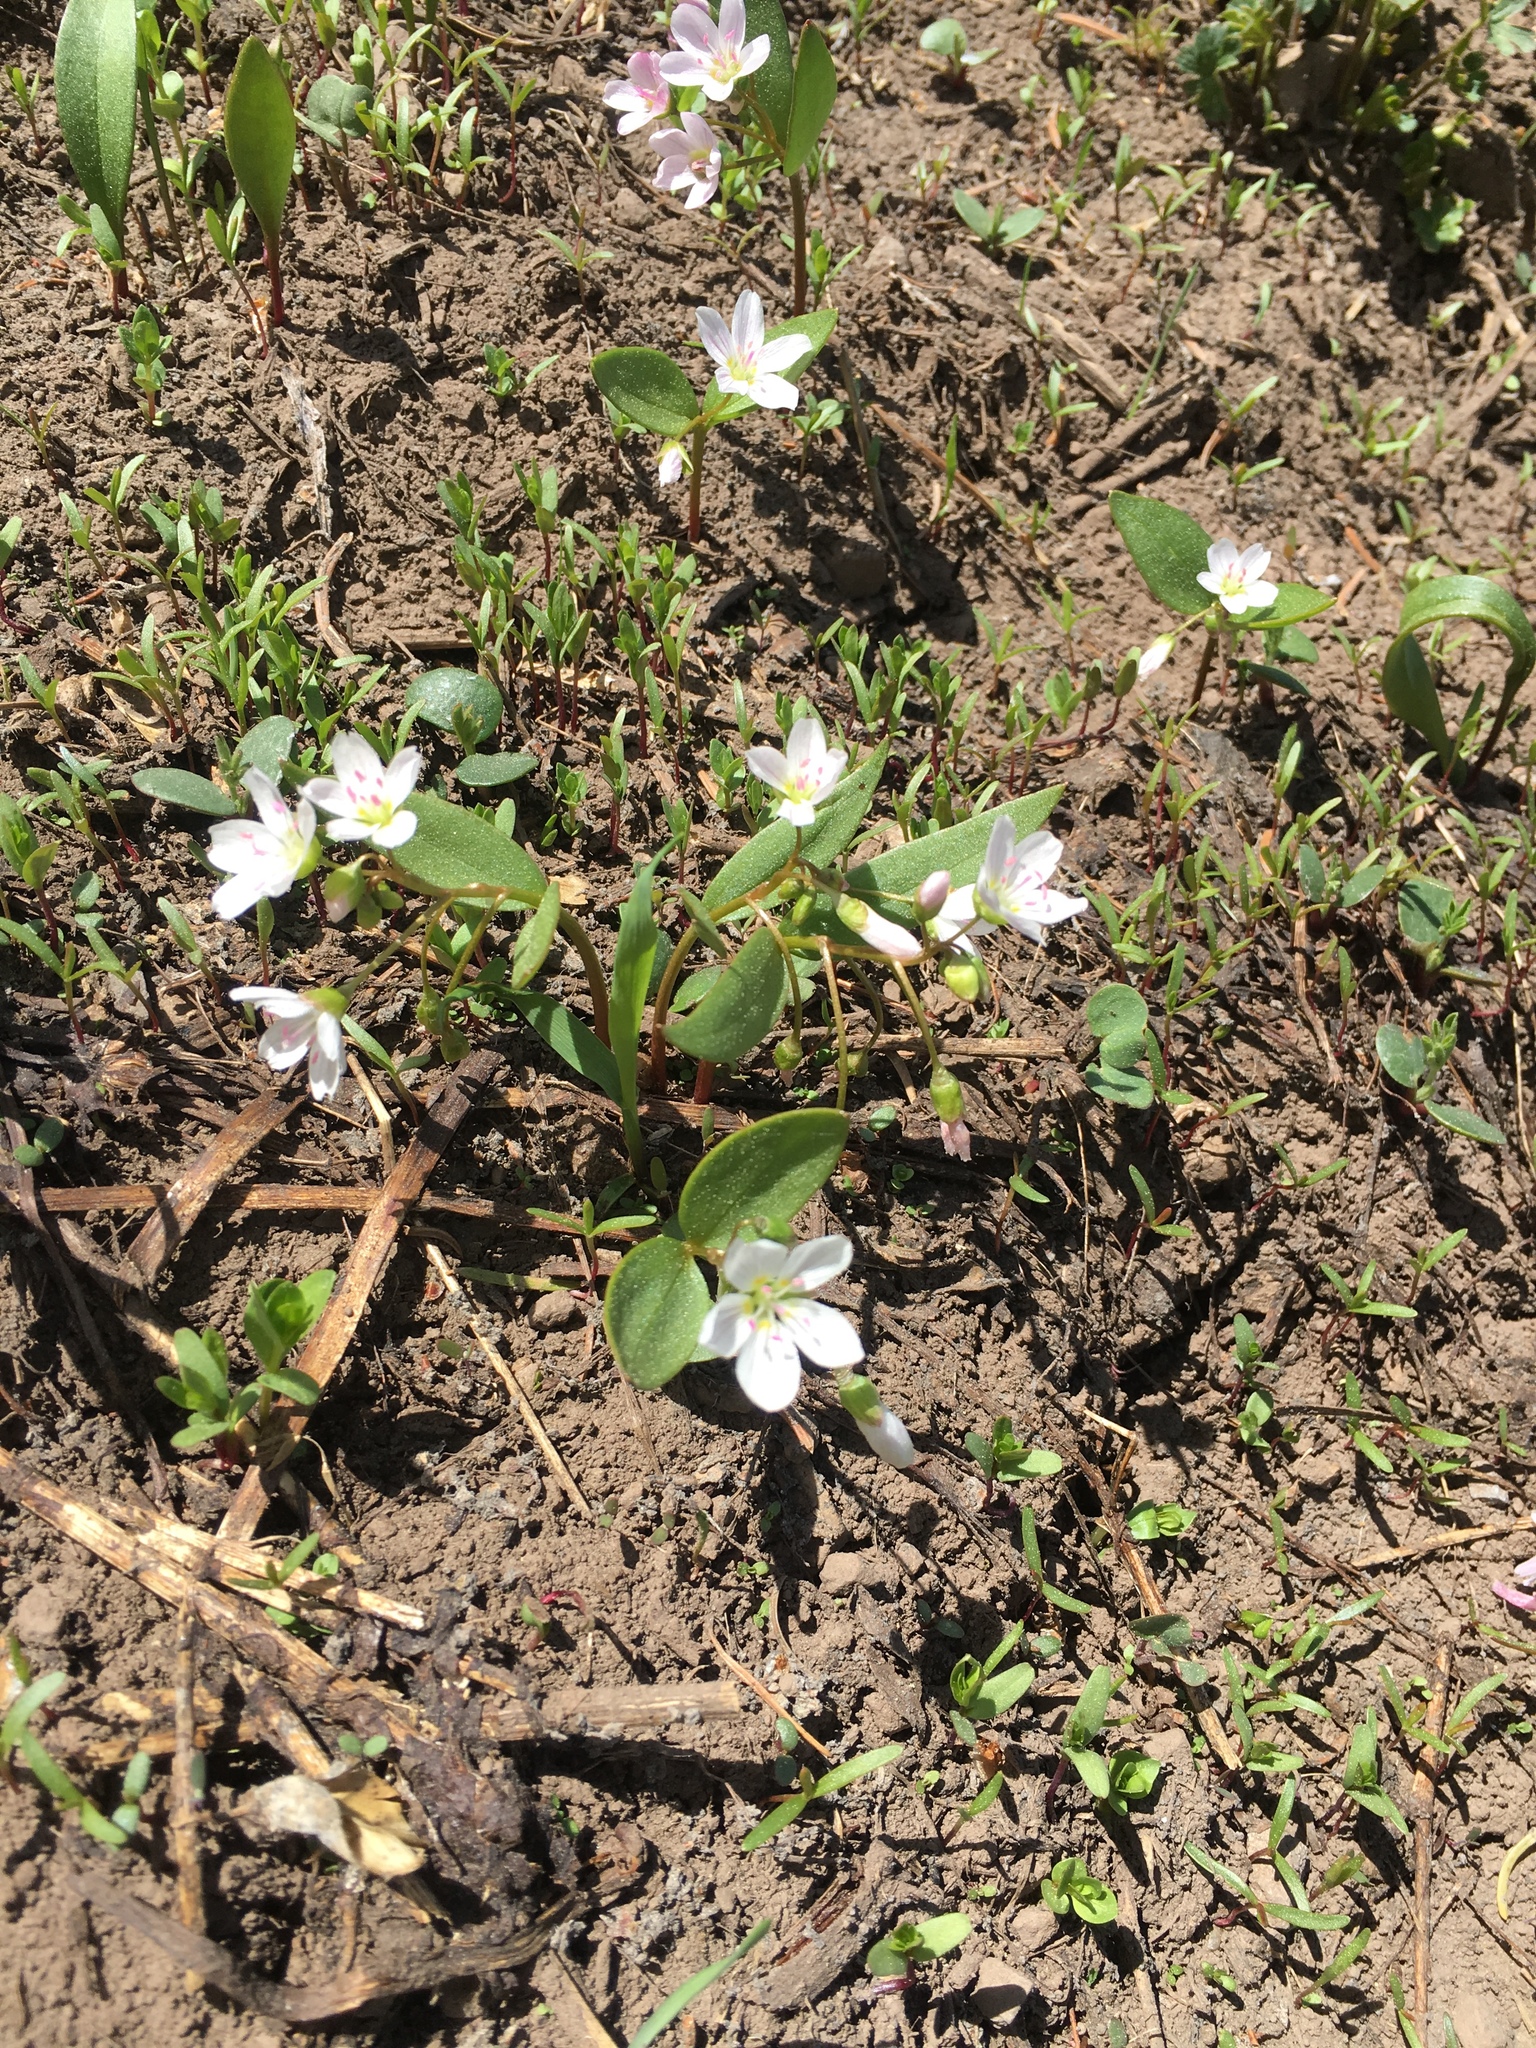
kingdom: Plantae
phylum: Tracheophyta
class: Magnoliopsida
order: Caryophyllales
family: Montiaceae
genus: Claytonia
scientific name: Claytonia lanceolata
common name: Western spring-beauty
